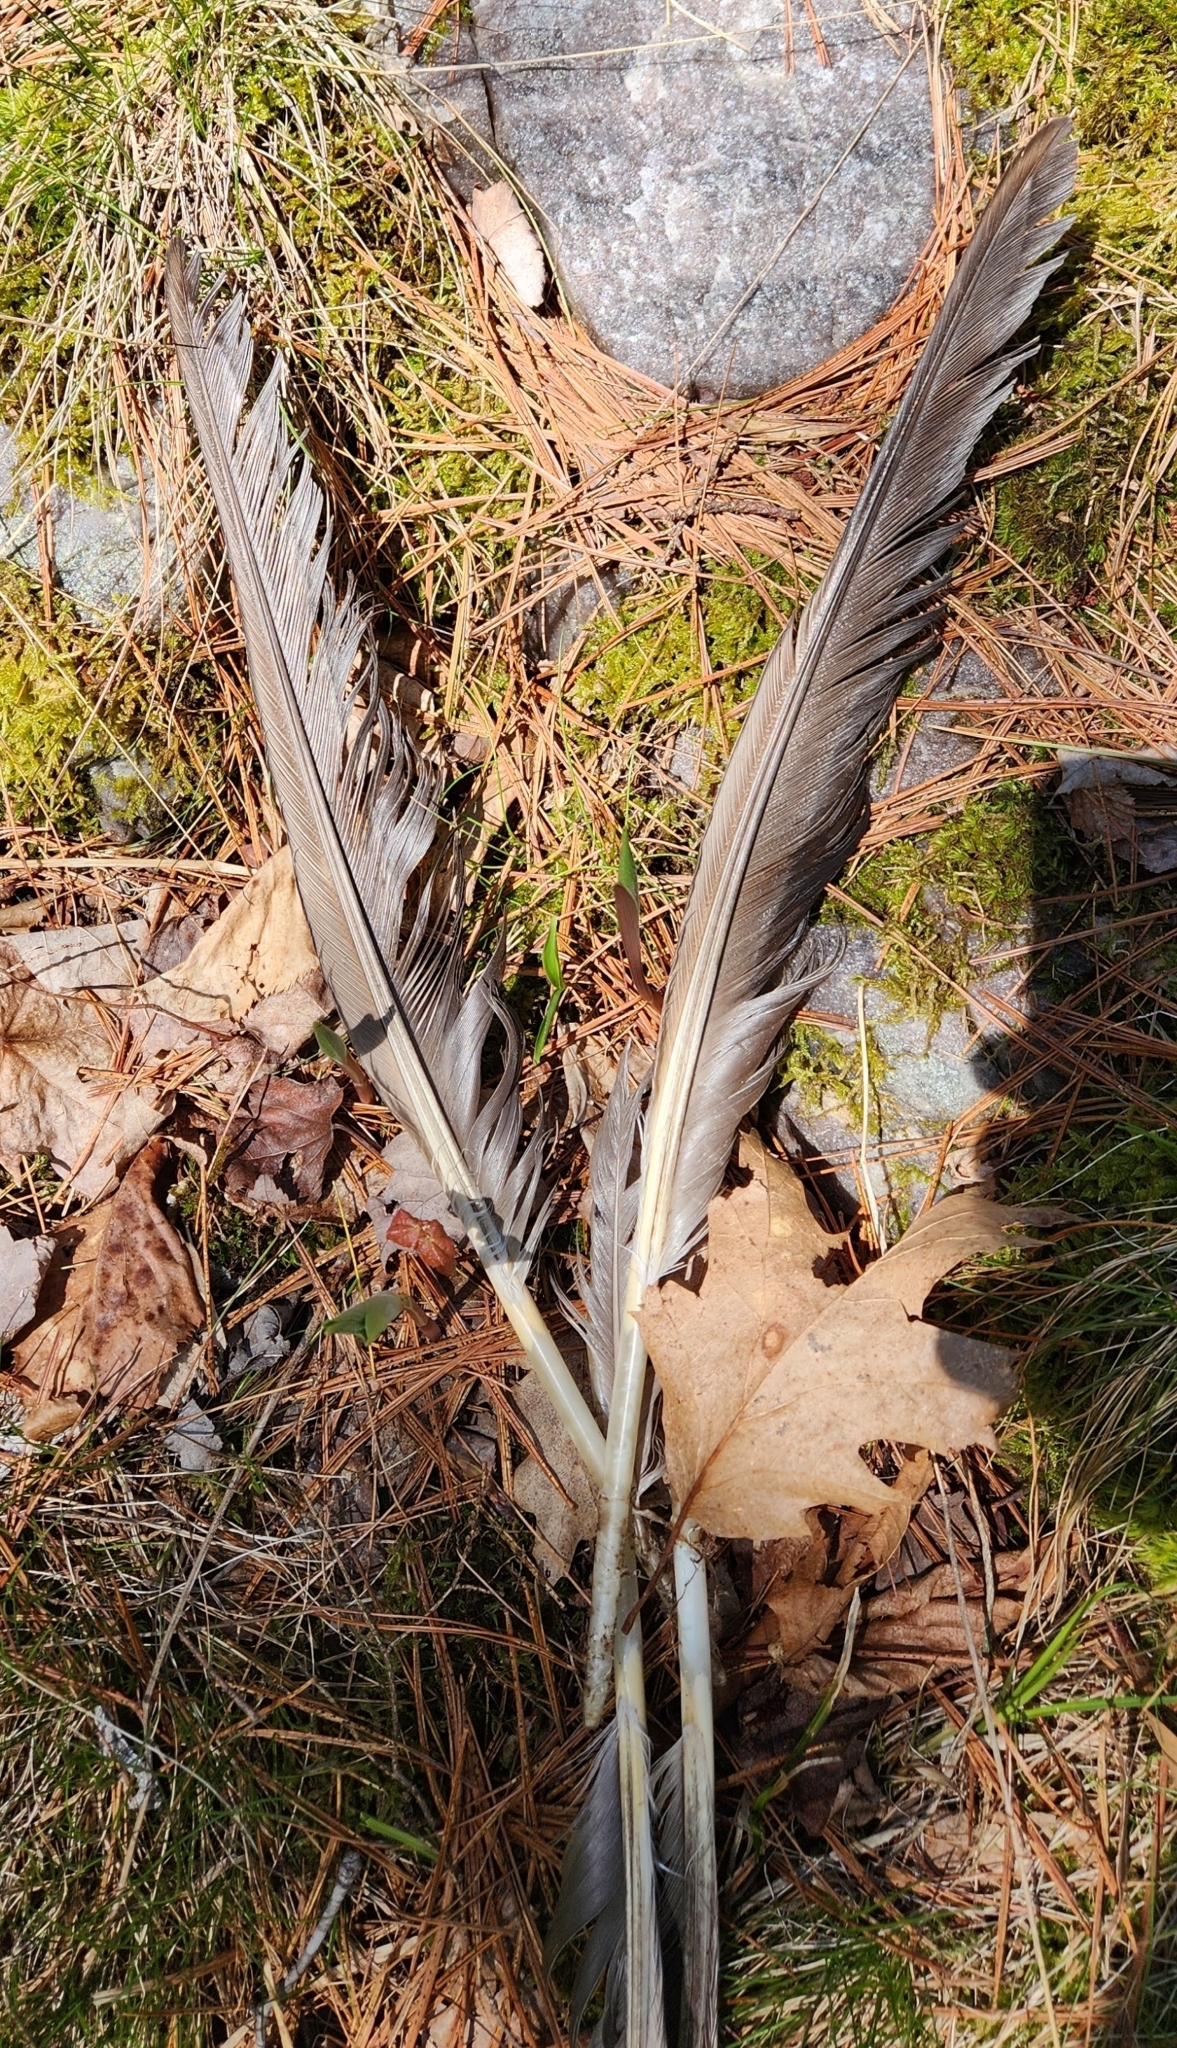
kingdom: Animalia
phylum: Chordata
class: Aves
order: Anseriformes
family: Anatidae
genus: Branta
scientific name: Branta canadensis
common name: Canada goose
